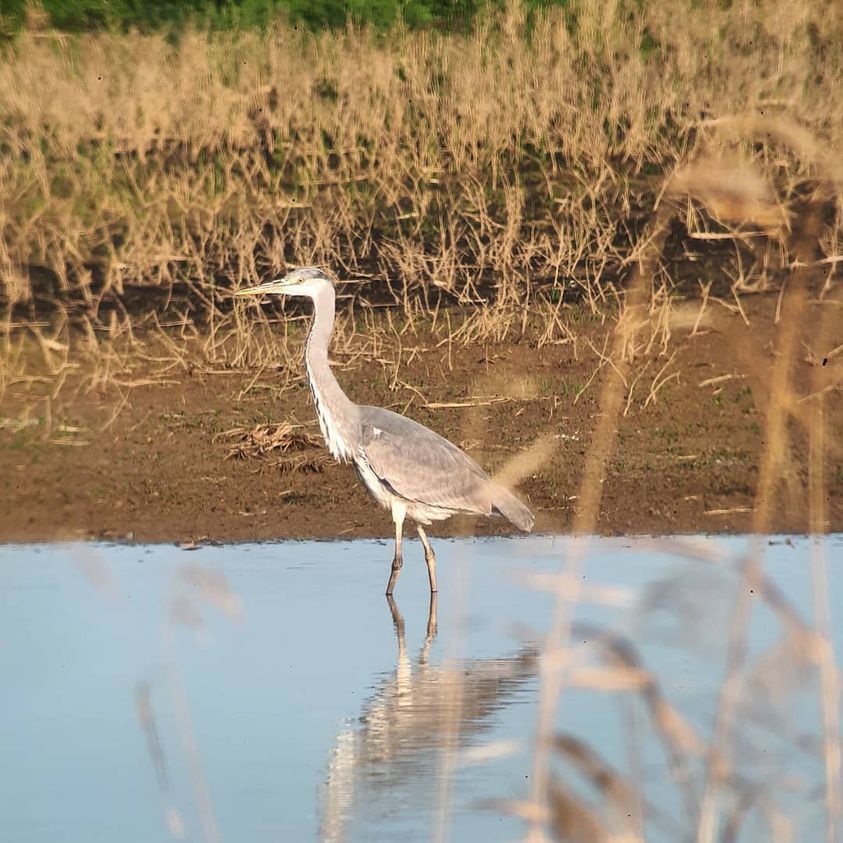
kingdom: Animalia
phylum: Chordata
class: Aves
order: Pelecaniformes
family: Ardeidae
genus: Ardea
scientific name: Ardea cinerea
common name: Grey heron
